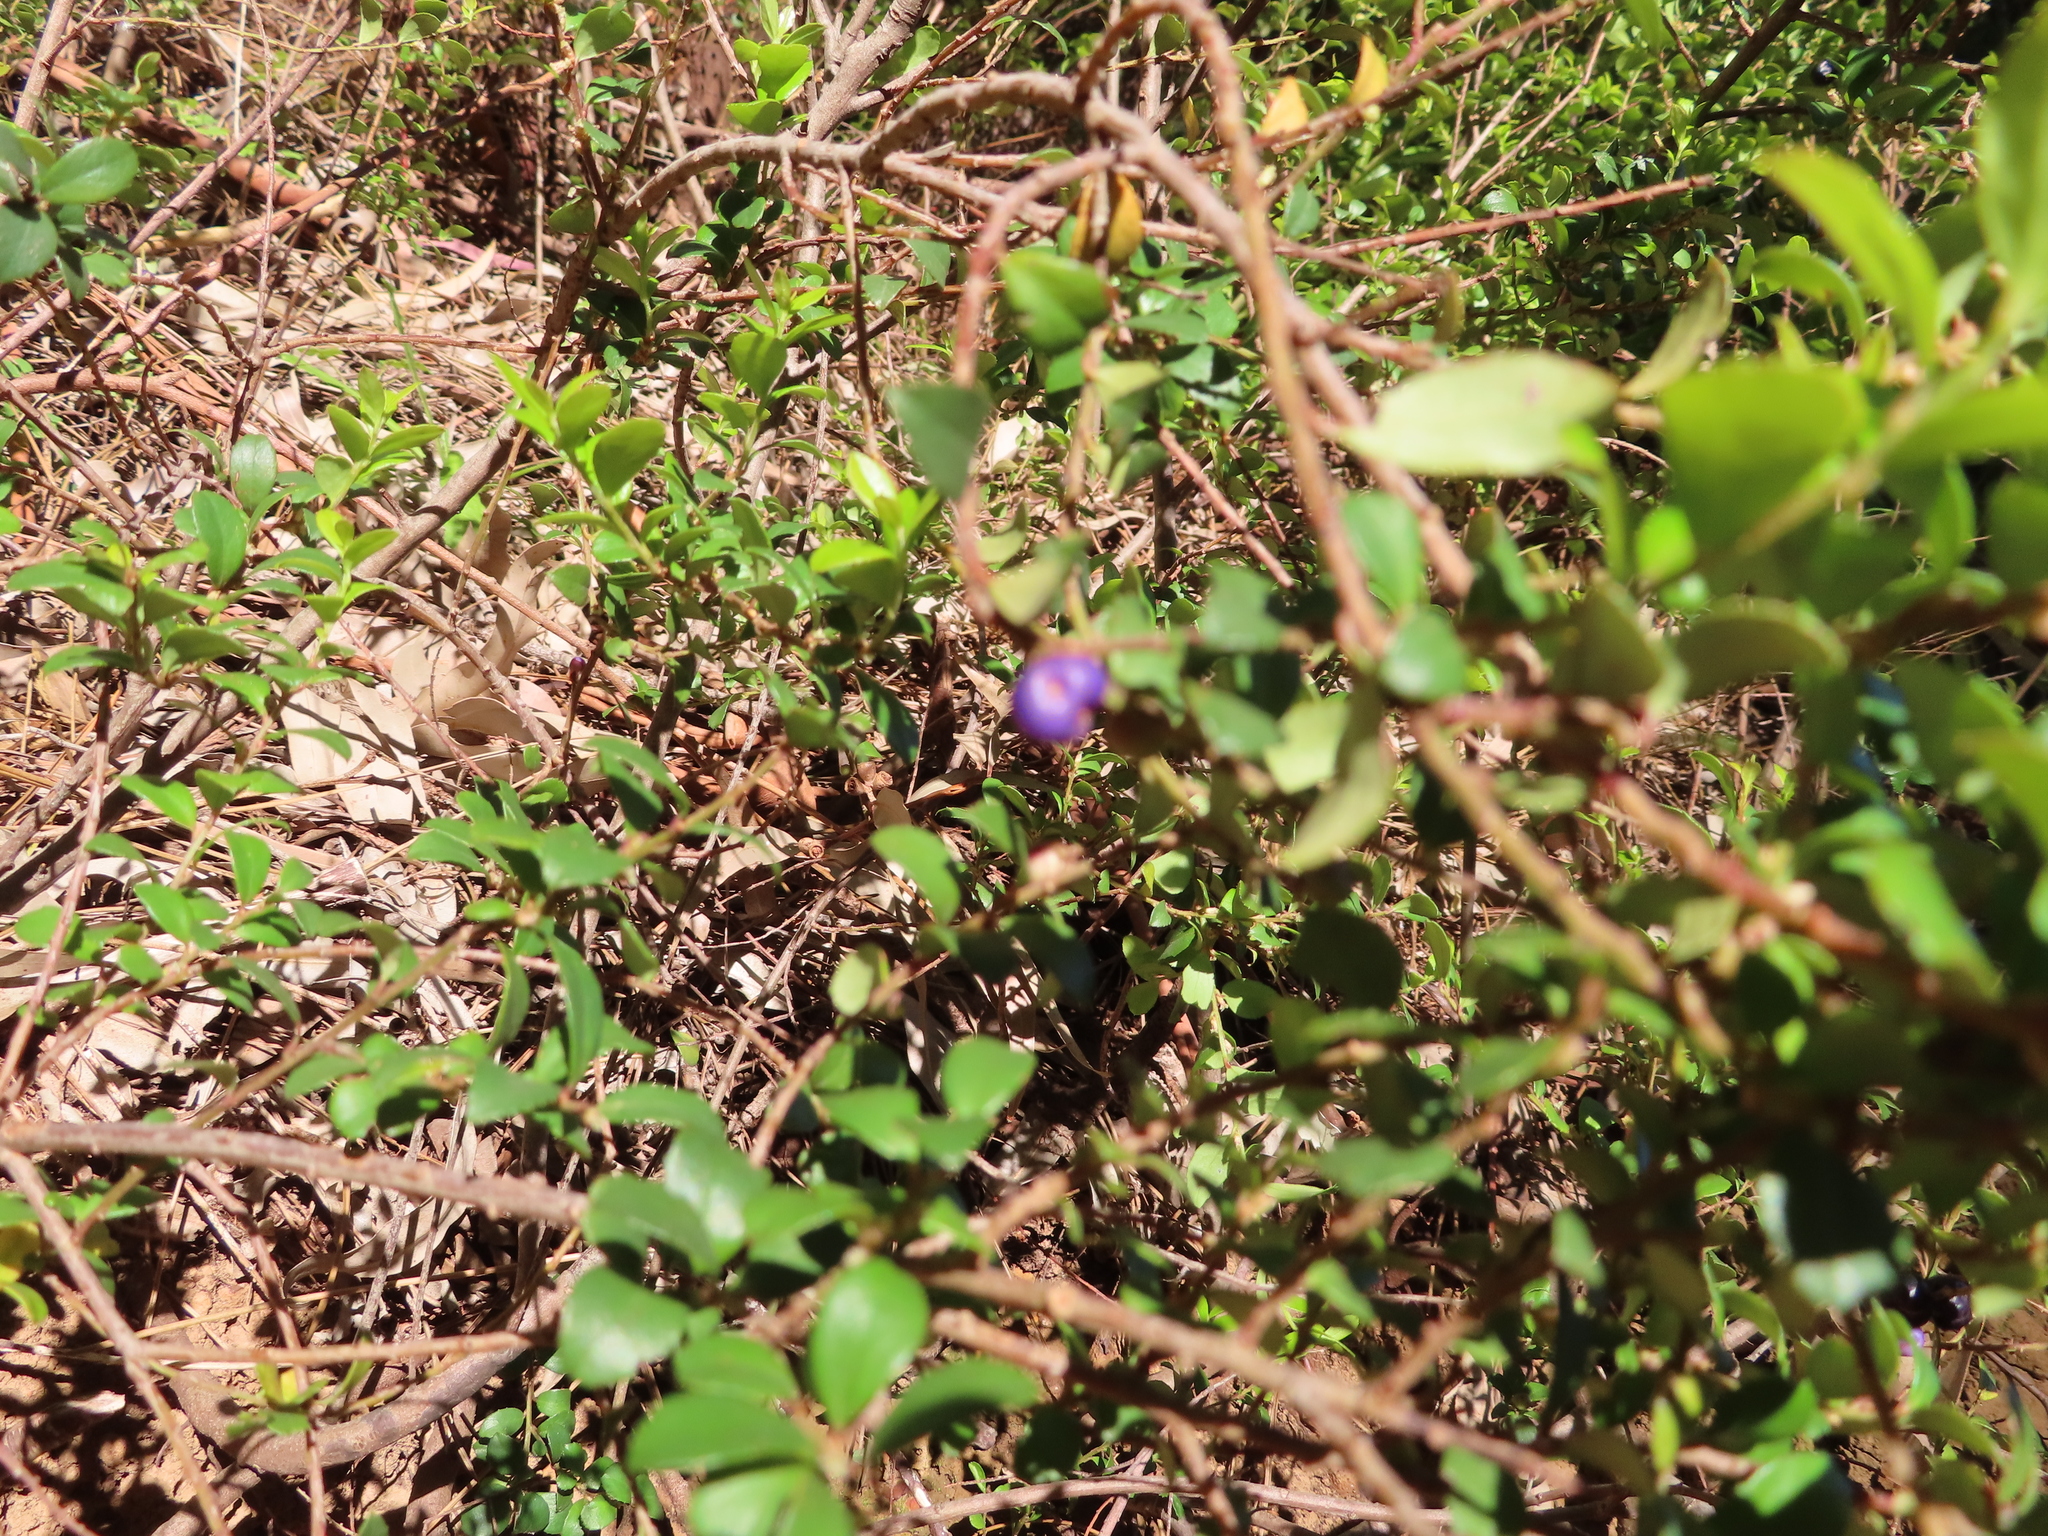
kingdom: Plantae
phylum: Tracheophyta
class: Magnoliopsida
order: Ericales
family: Primulaceae
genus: Myrsine
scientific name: Myrsine africana
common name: African-boxwood
